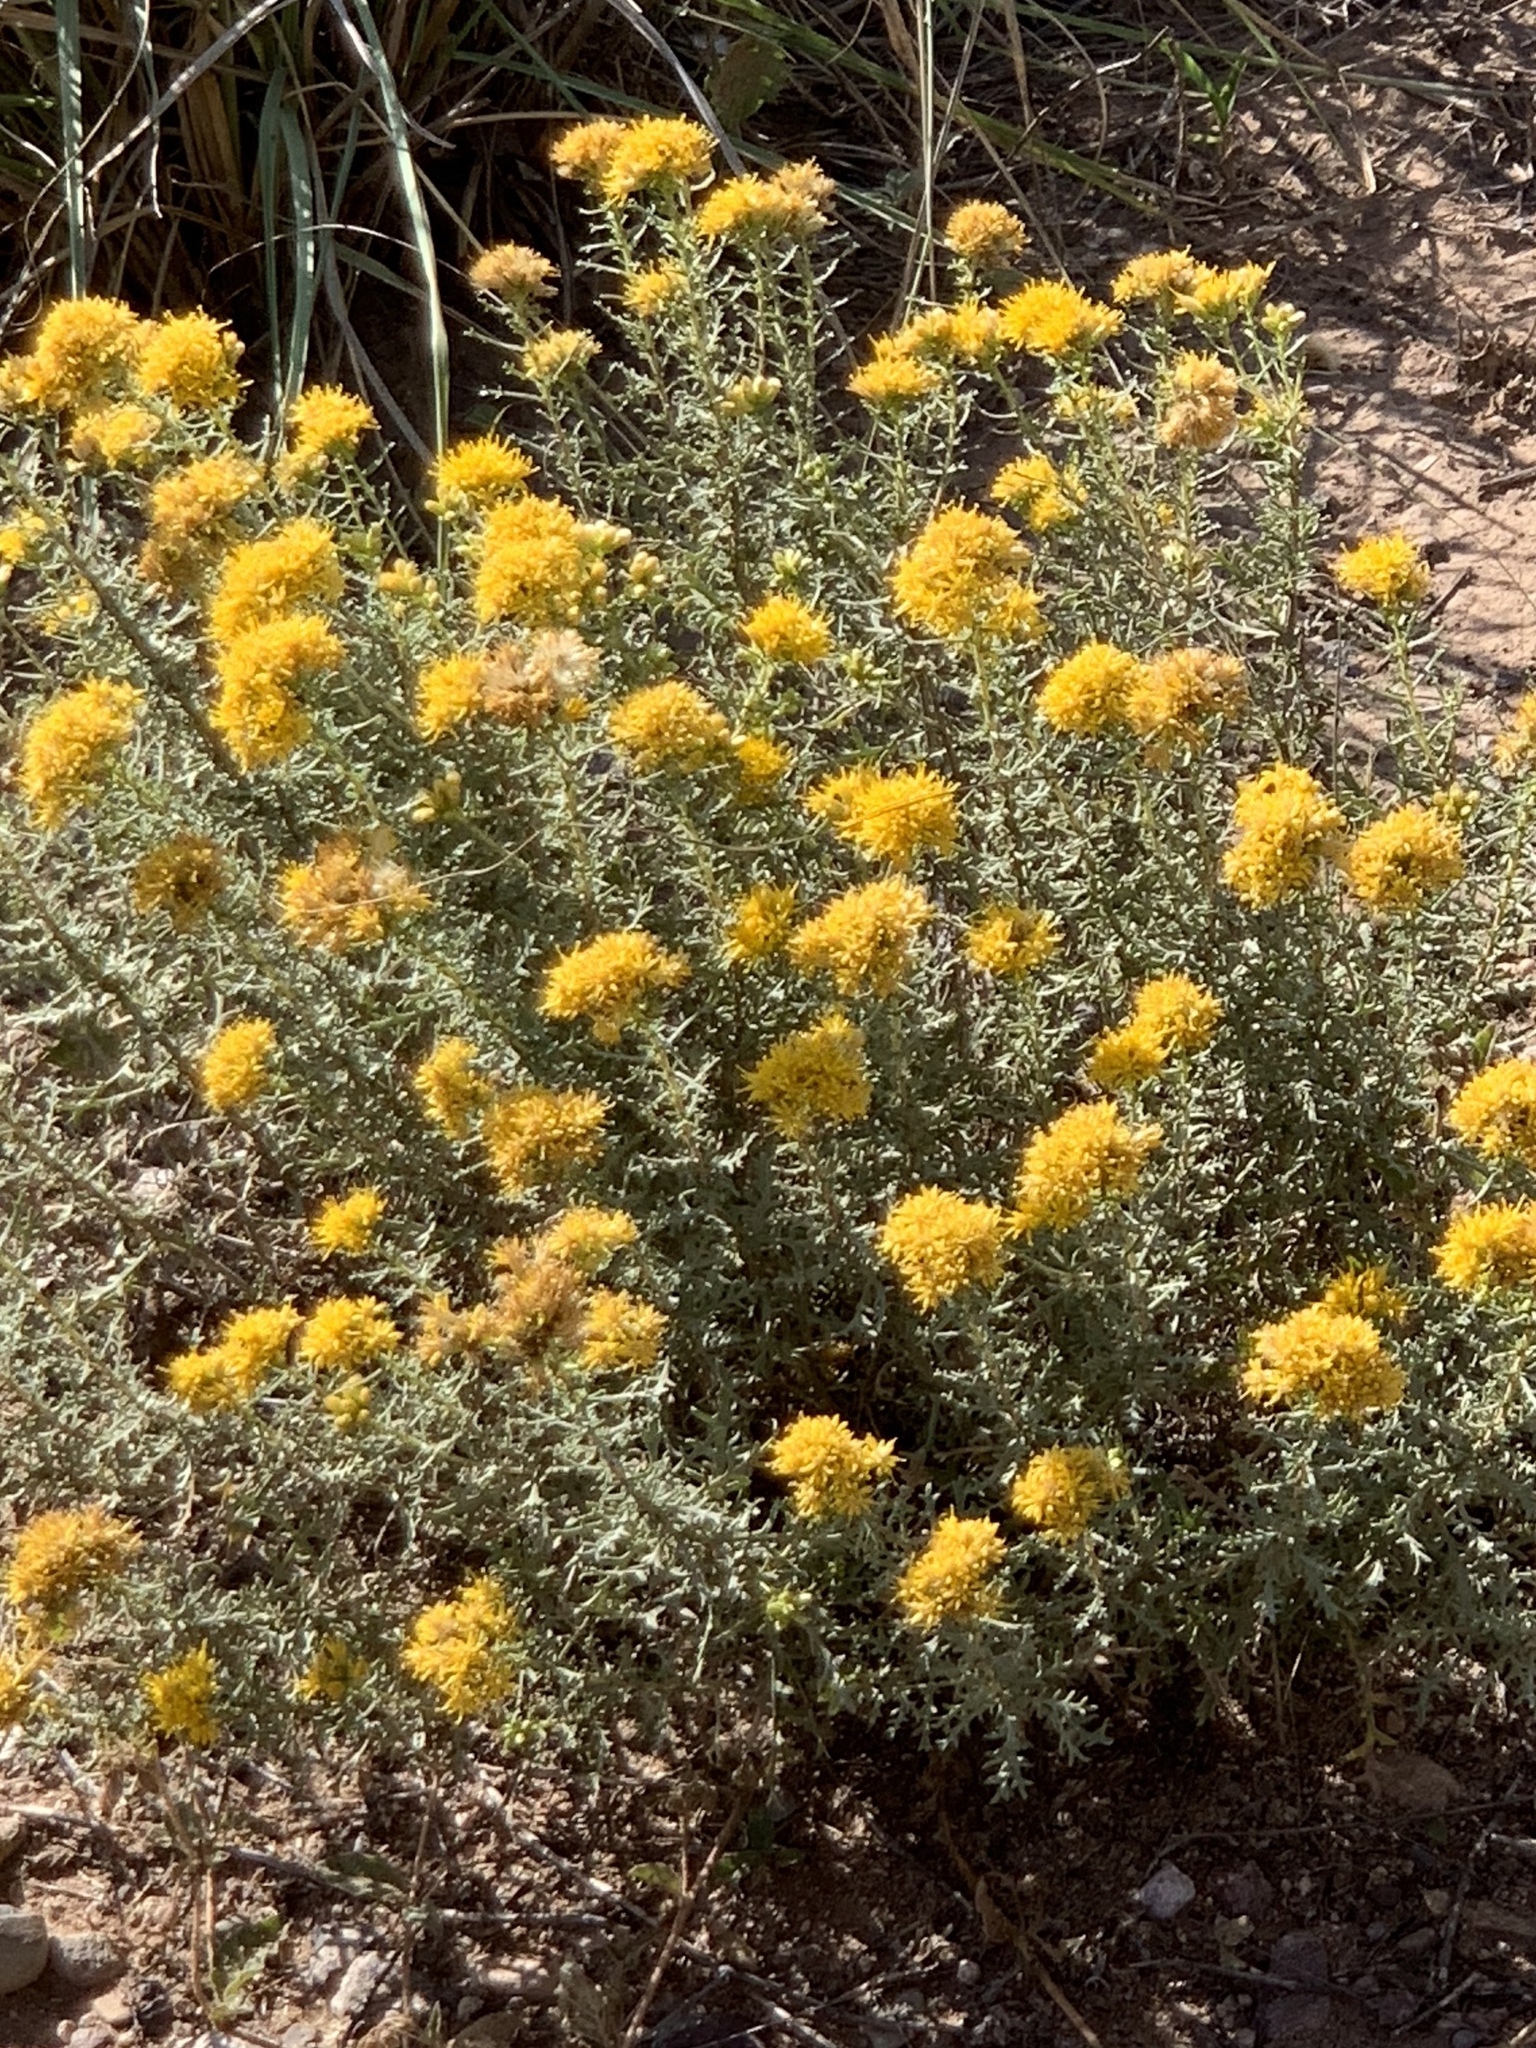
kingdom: Plantae
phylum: Tracheophyta
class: Magnoliopsida
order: Asterales
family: Asteraceae
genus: Isocoma
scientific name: Isocoma tenuisecta
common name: Burroweed
